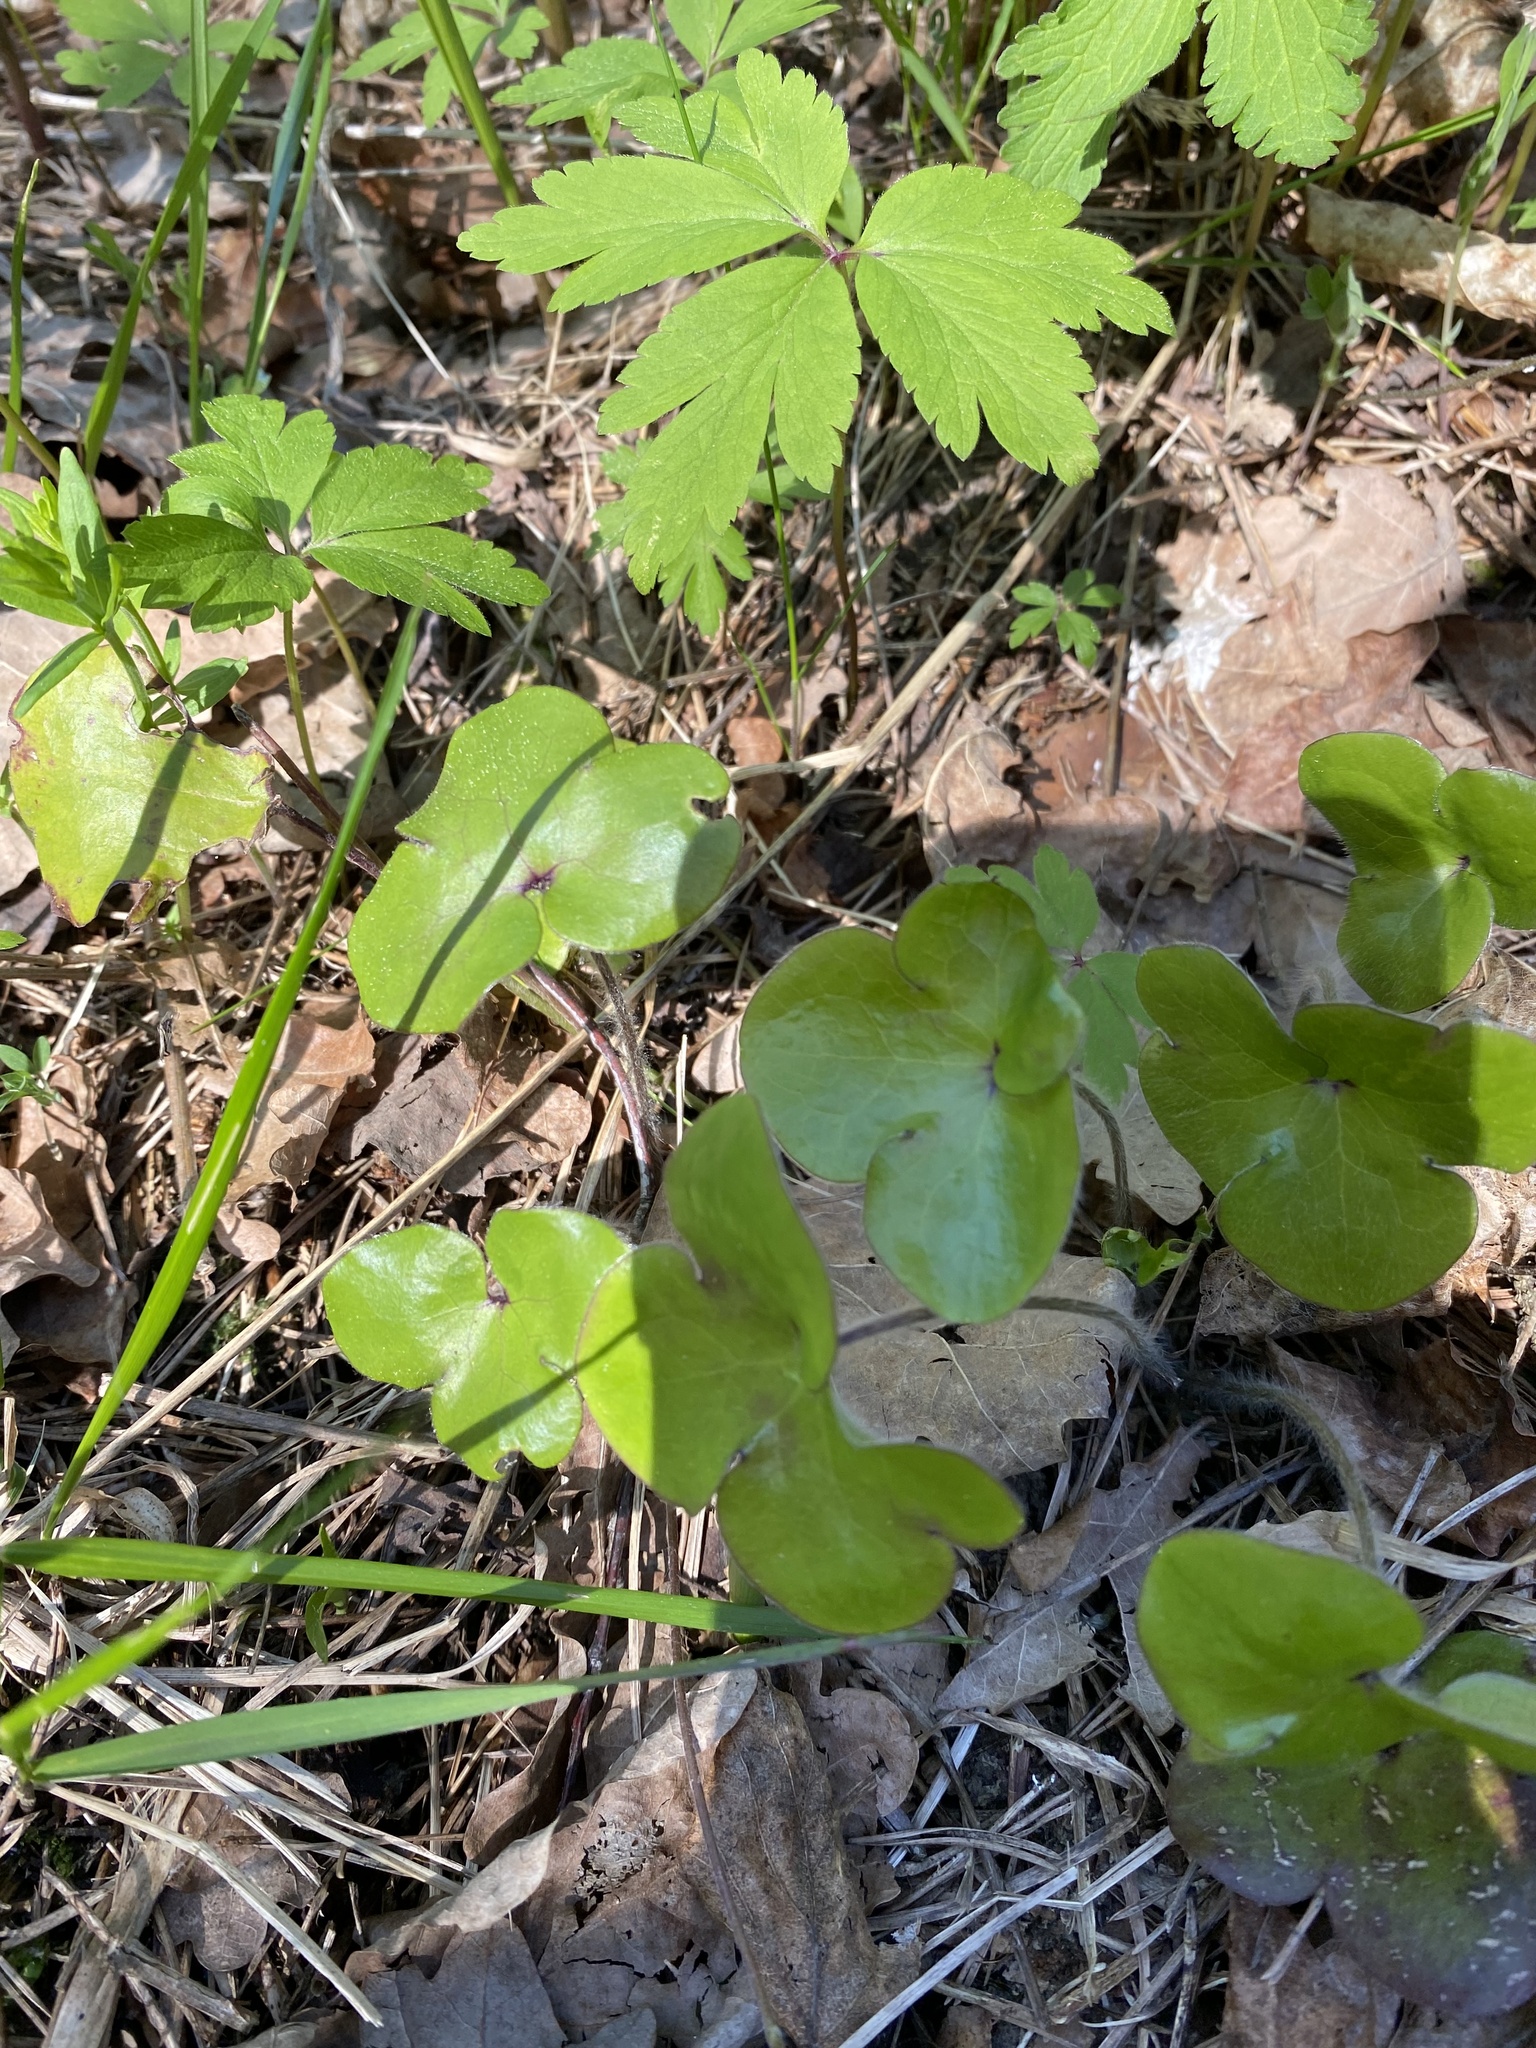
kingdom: Plantae
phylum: Tracheophyta
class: Magnoliopsida
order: Ranunculales
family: Ranunculaceae
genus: Hepatica
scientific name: Hepatica nobilis
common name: Liverleaf
